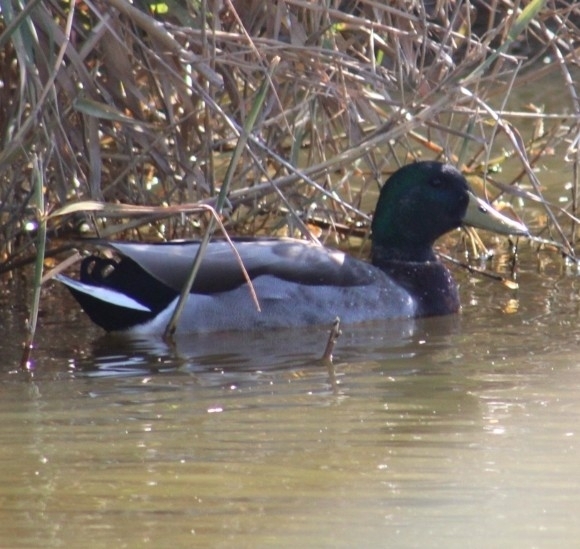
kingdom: Animalia
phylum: Chordata
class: Aves
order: Anseriformes
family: Anatidae
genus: Anas
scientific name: Anas platyrhynchos
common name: Mallard
